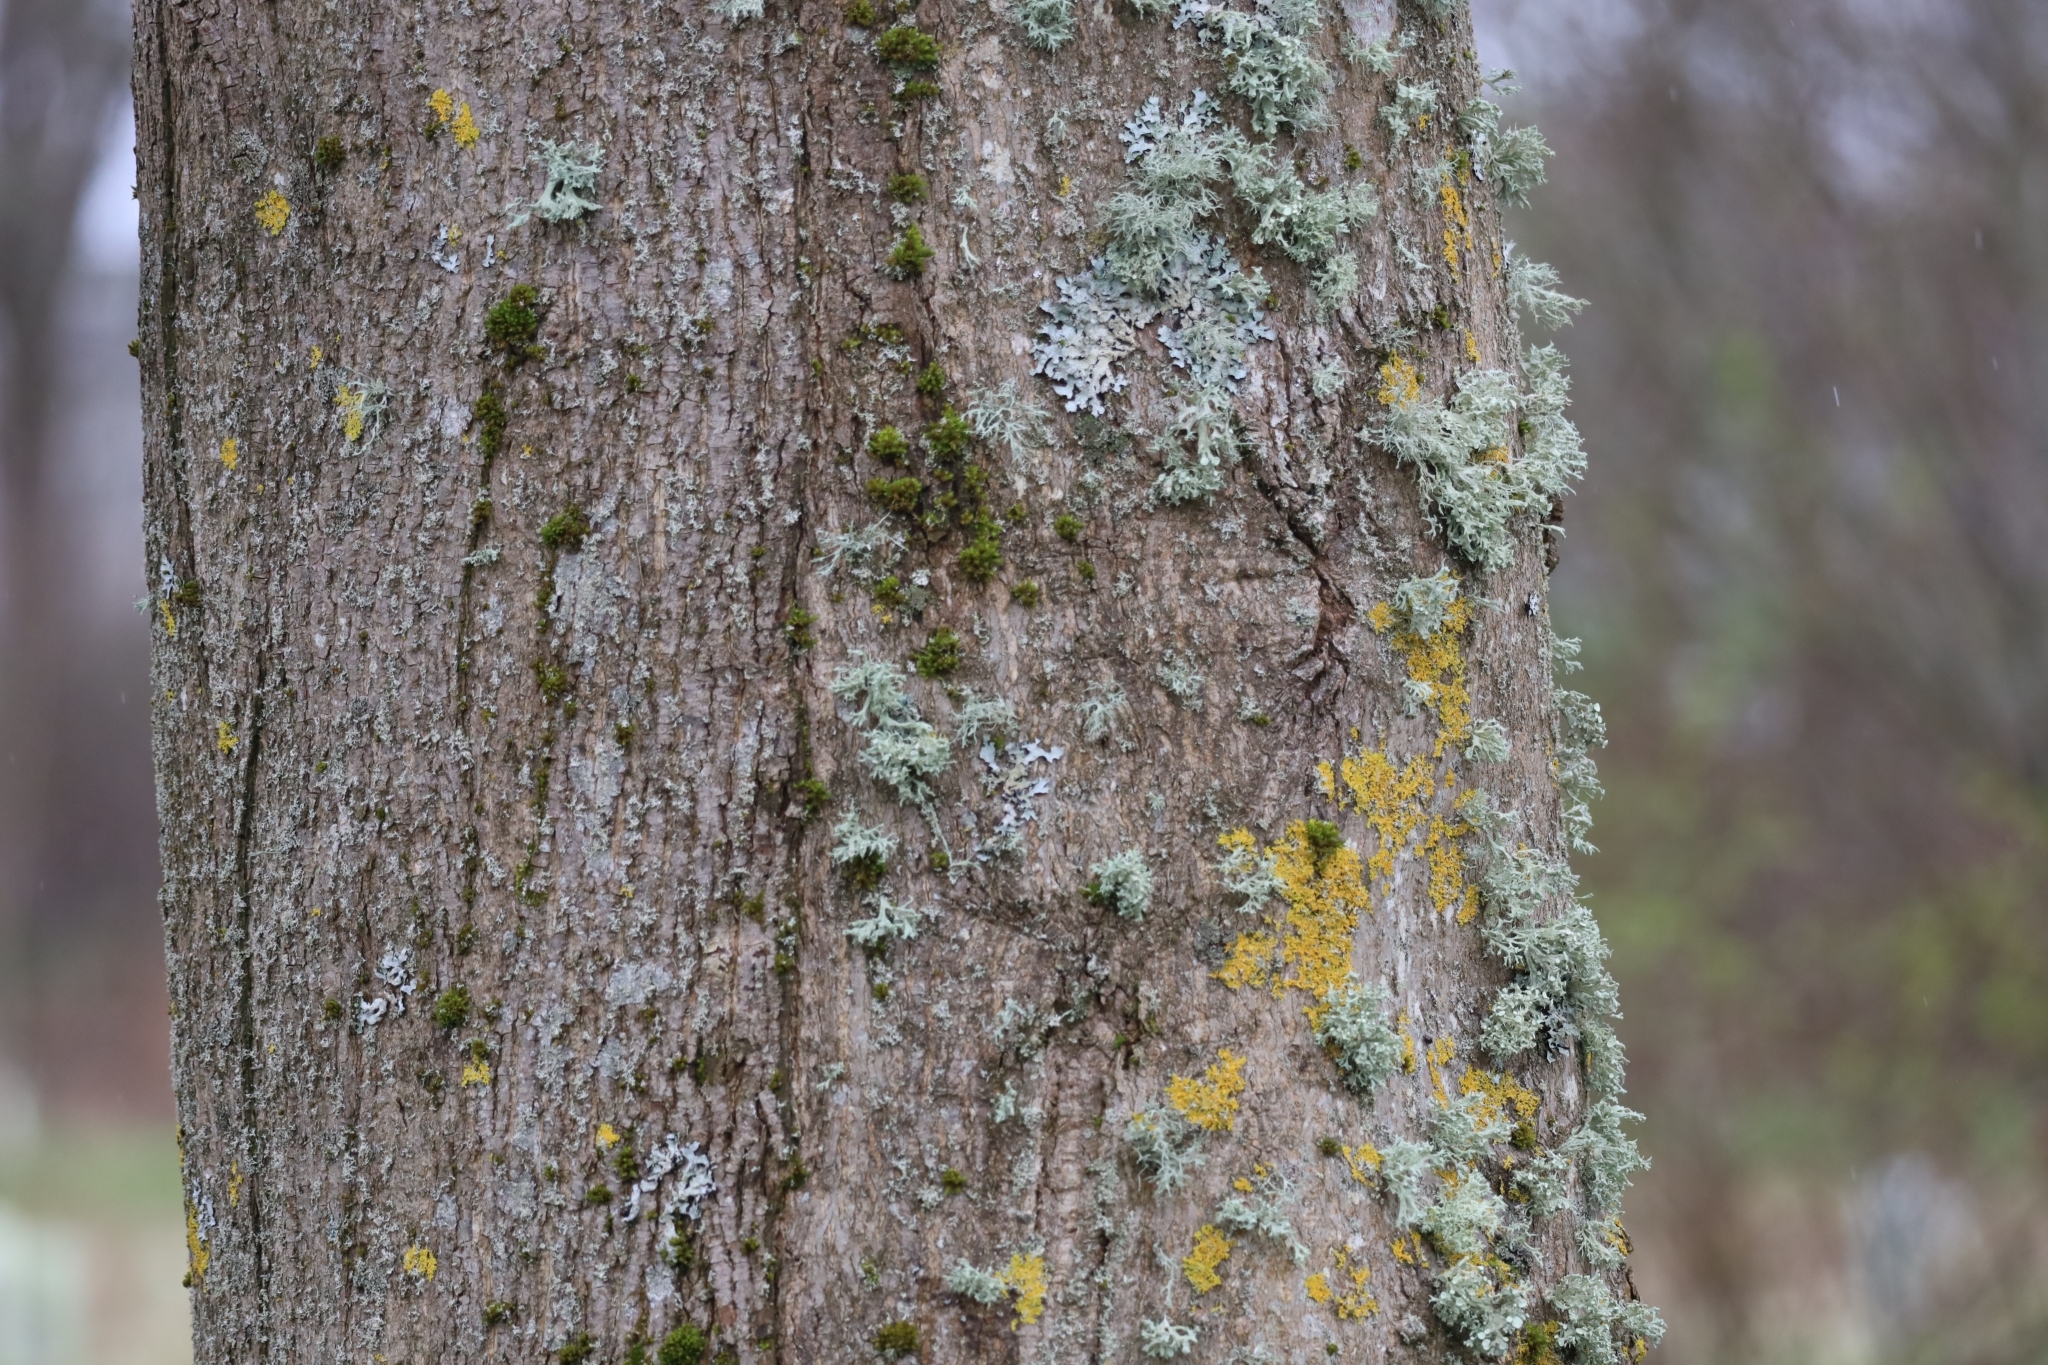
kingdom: Plantae
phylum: Tracheophyta
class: Magnoliopsida
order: Sapindales
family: Sapindaceae
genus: Acer
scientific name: Acer platanoides
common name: Norway maple
